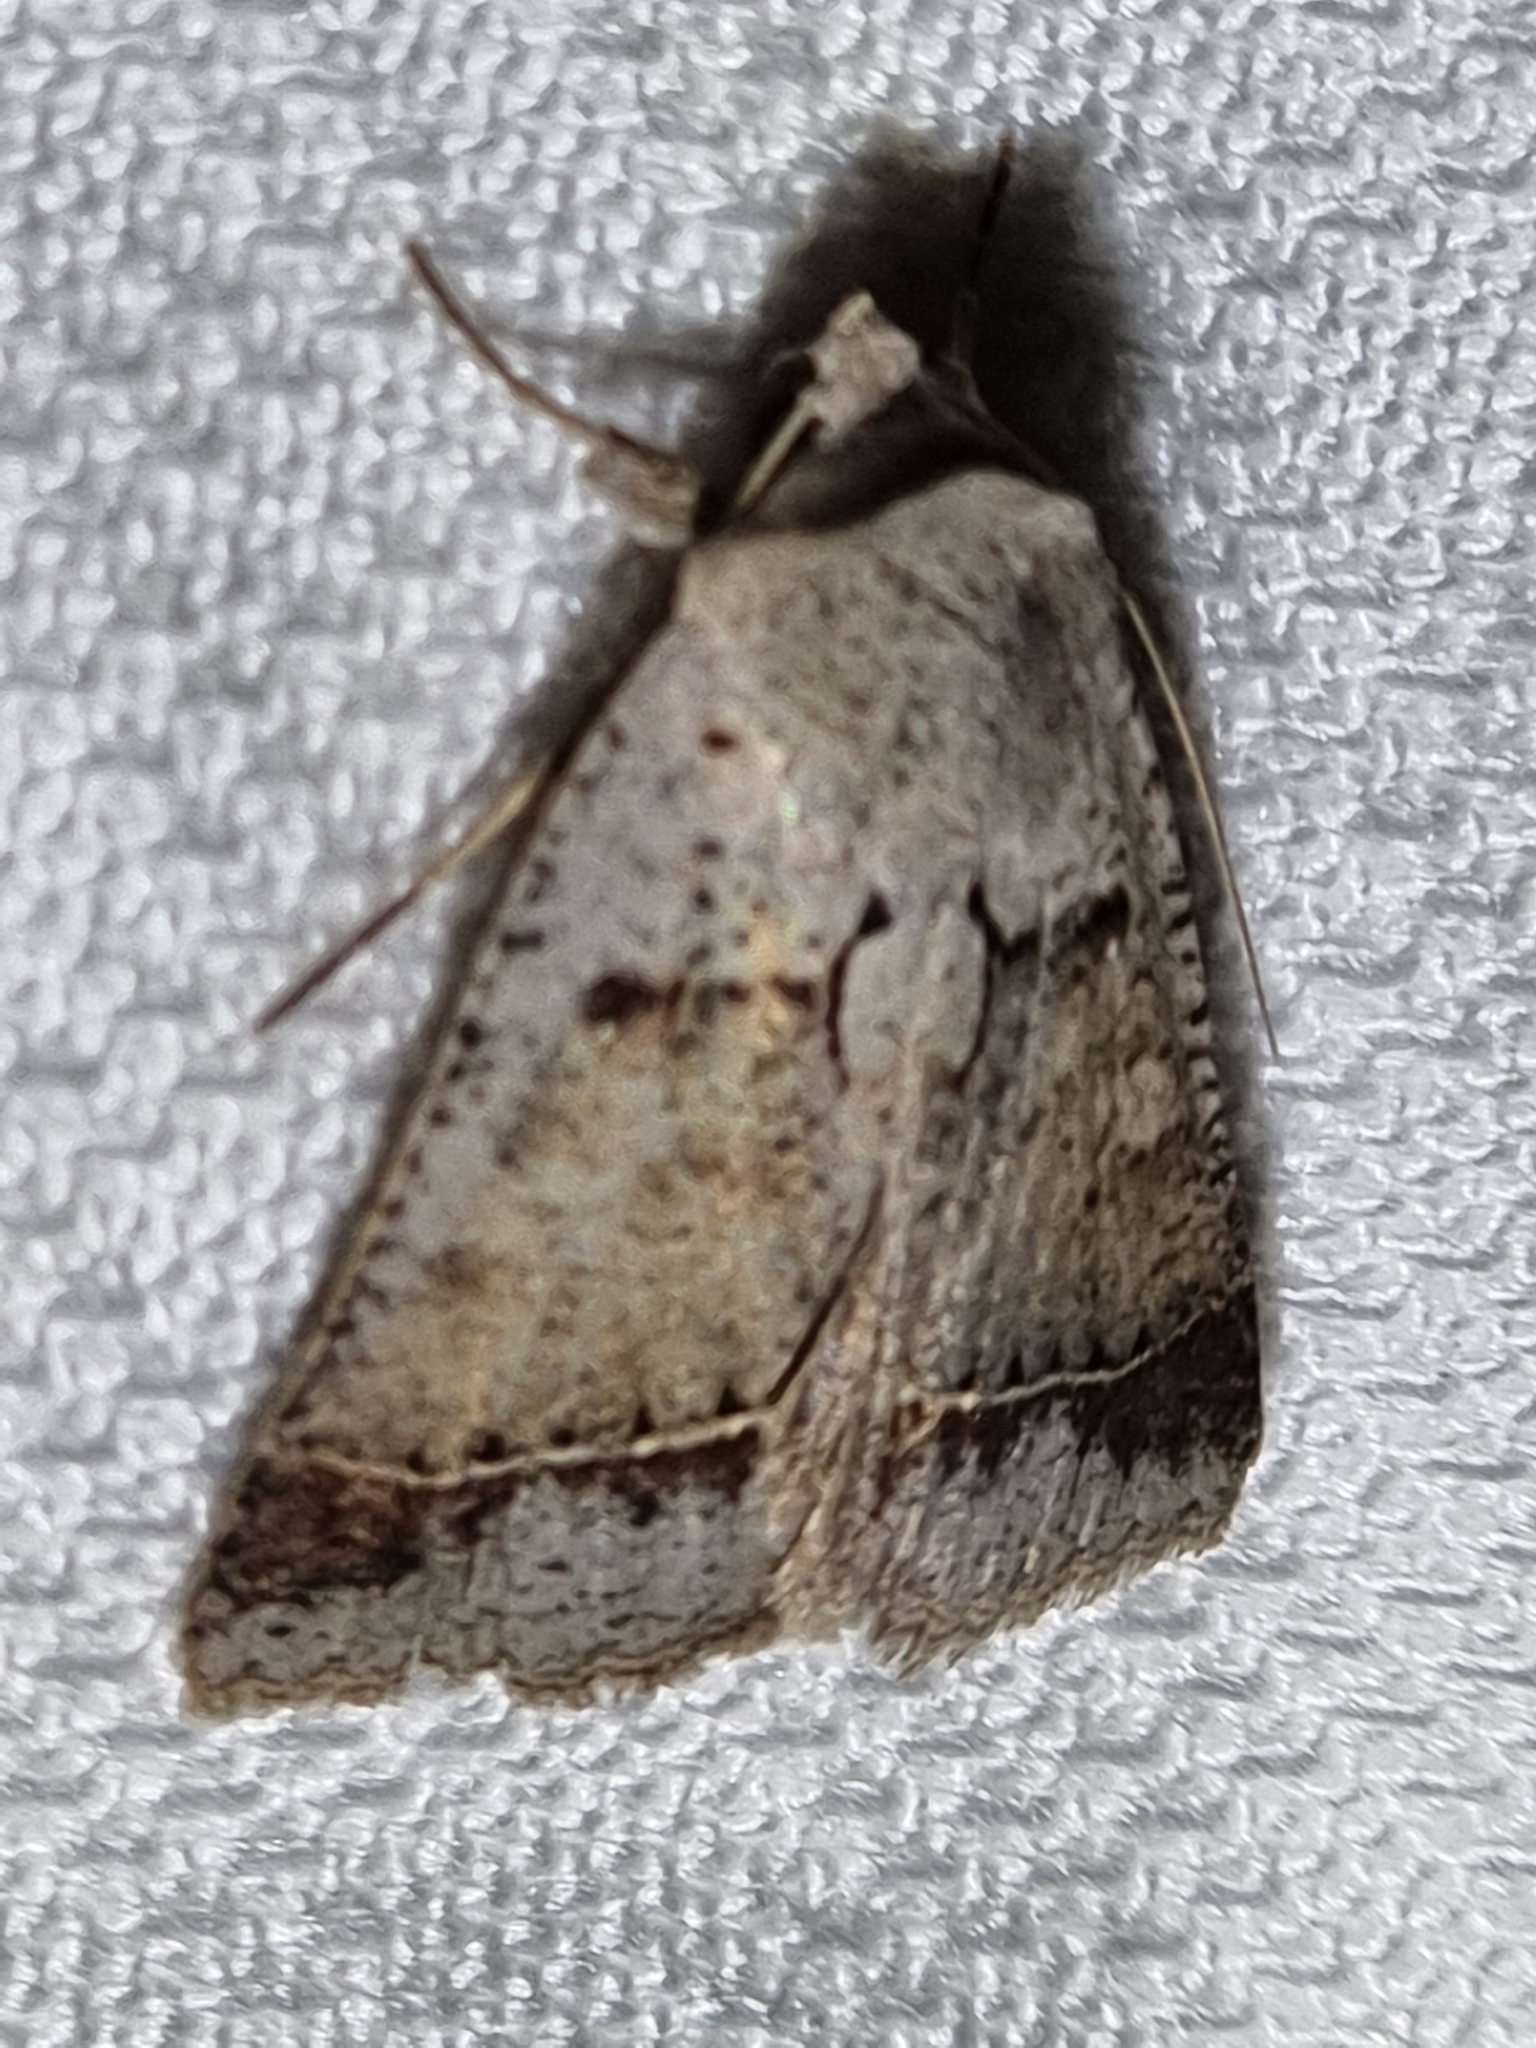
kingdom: Animalia
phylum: Arthropoda
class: Insecta
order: Lepidoptera
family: Erebidae
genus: Pantydia
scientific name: Pantydia sparsa
